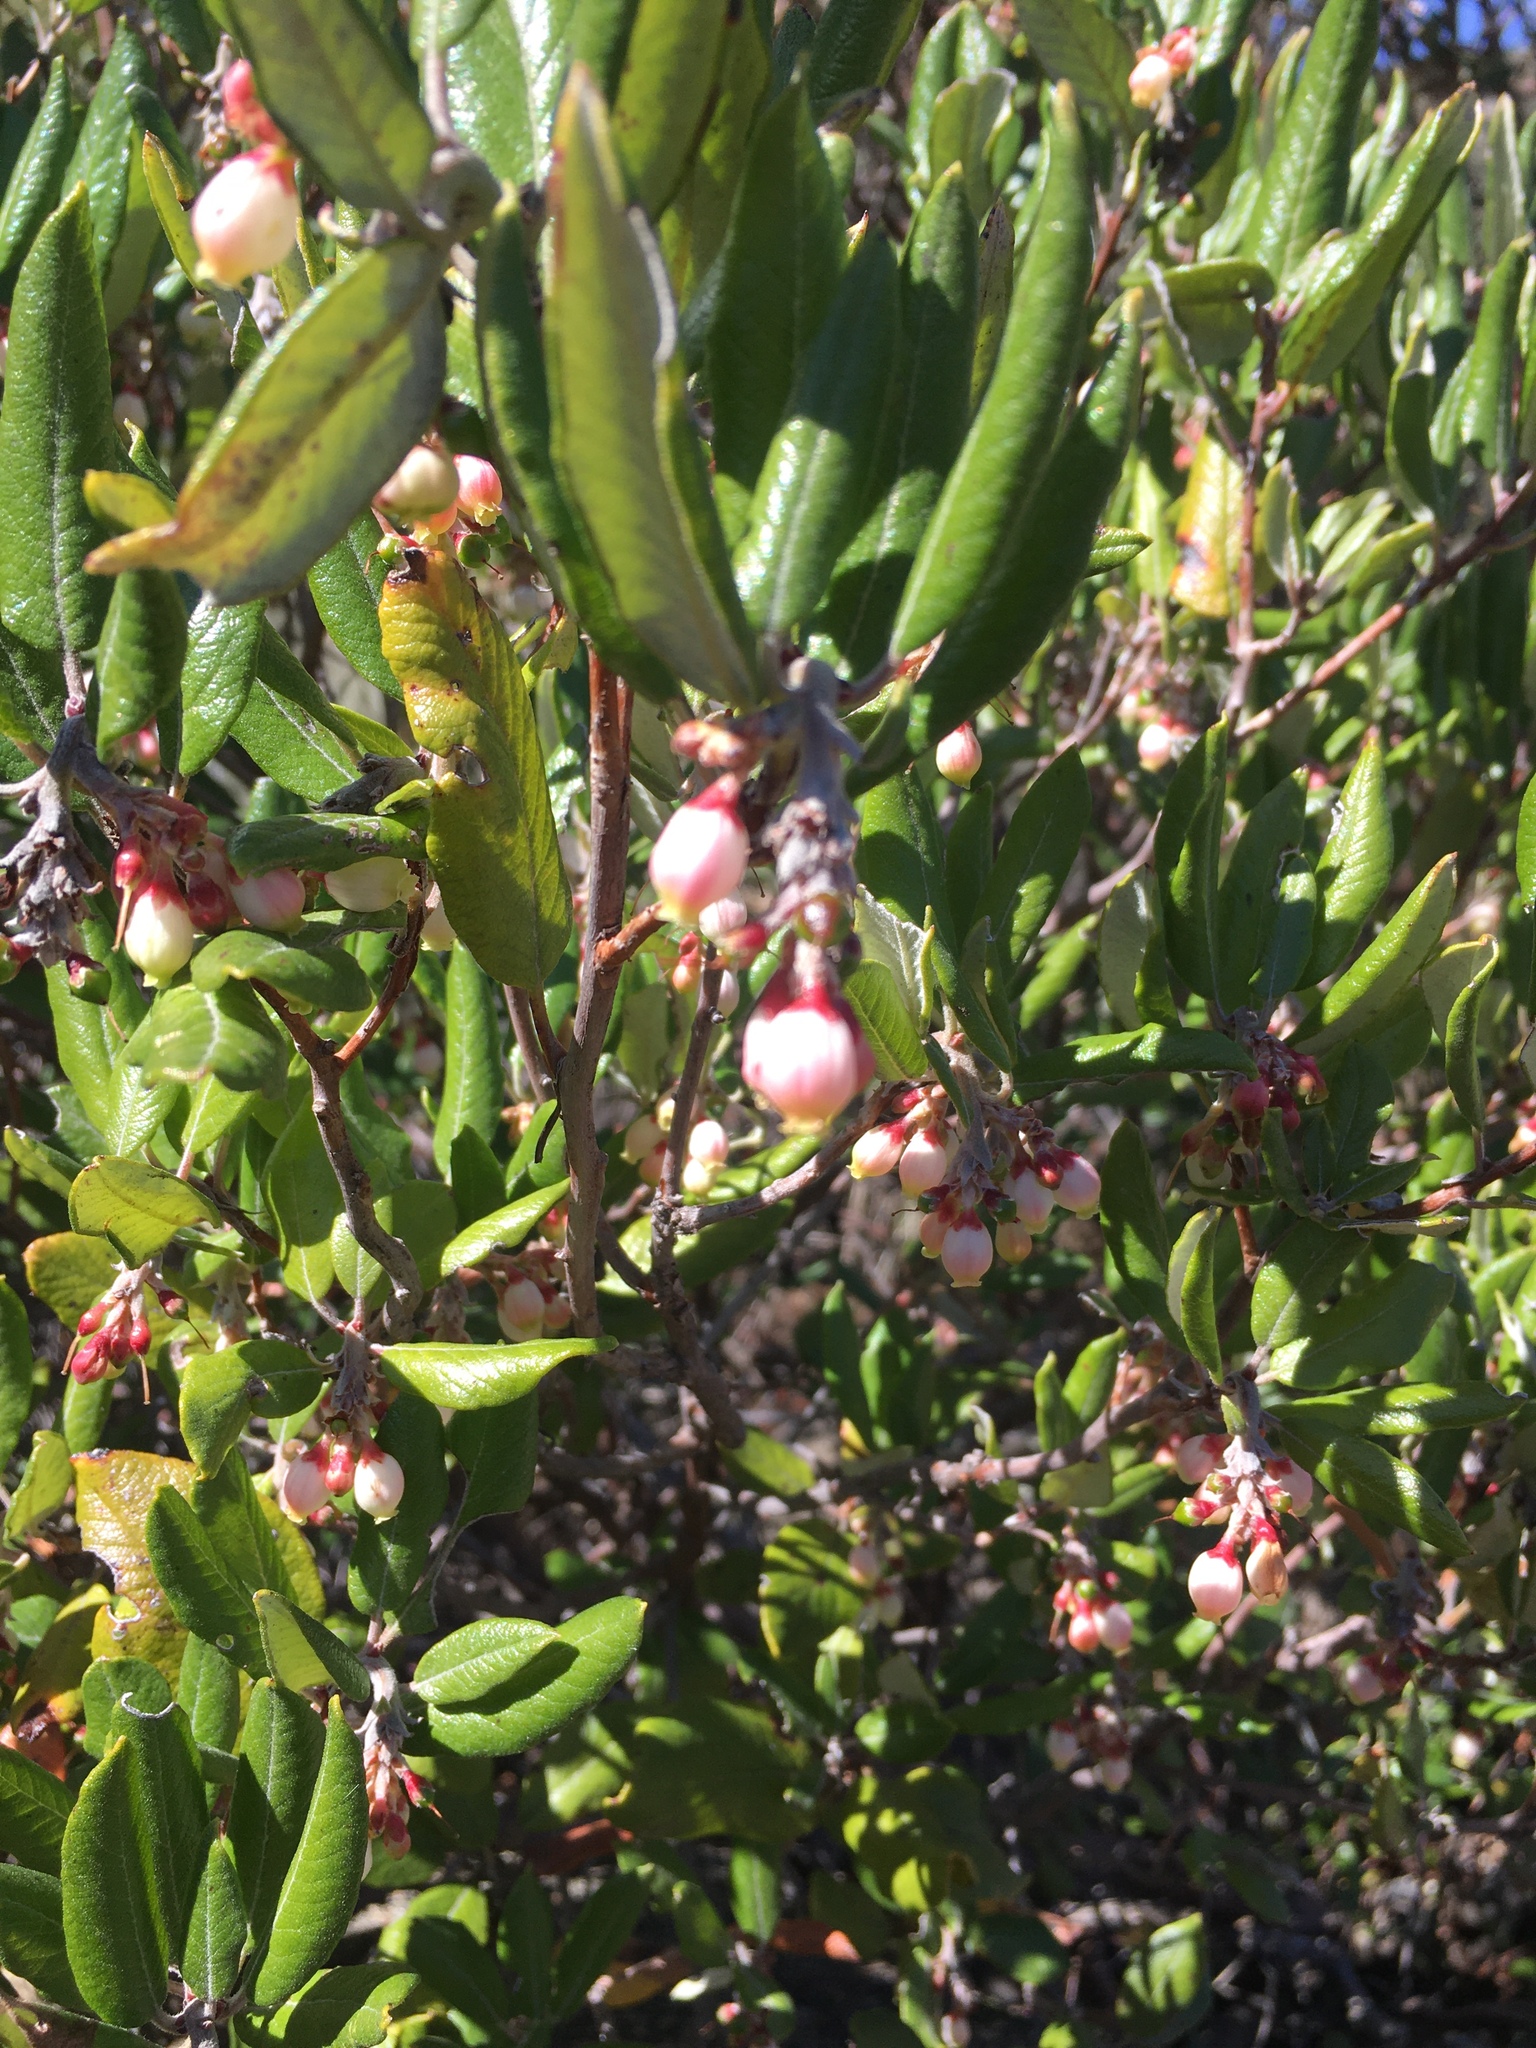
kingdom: Plantae
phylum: Tracheophyta
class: Magnoliopsida
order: Ericales
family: Ericaceae
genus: Arctostaphylos
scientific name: Arctostaphylos bicolor
